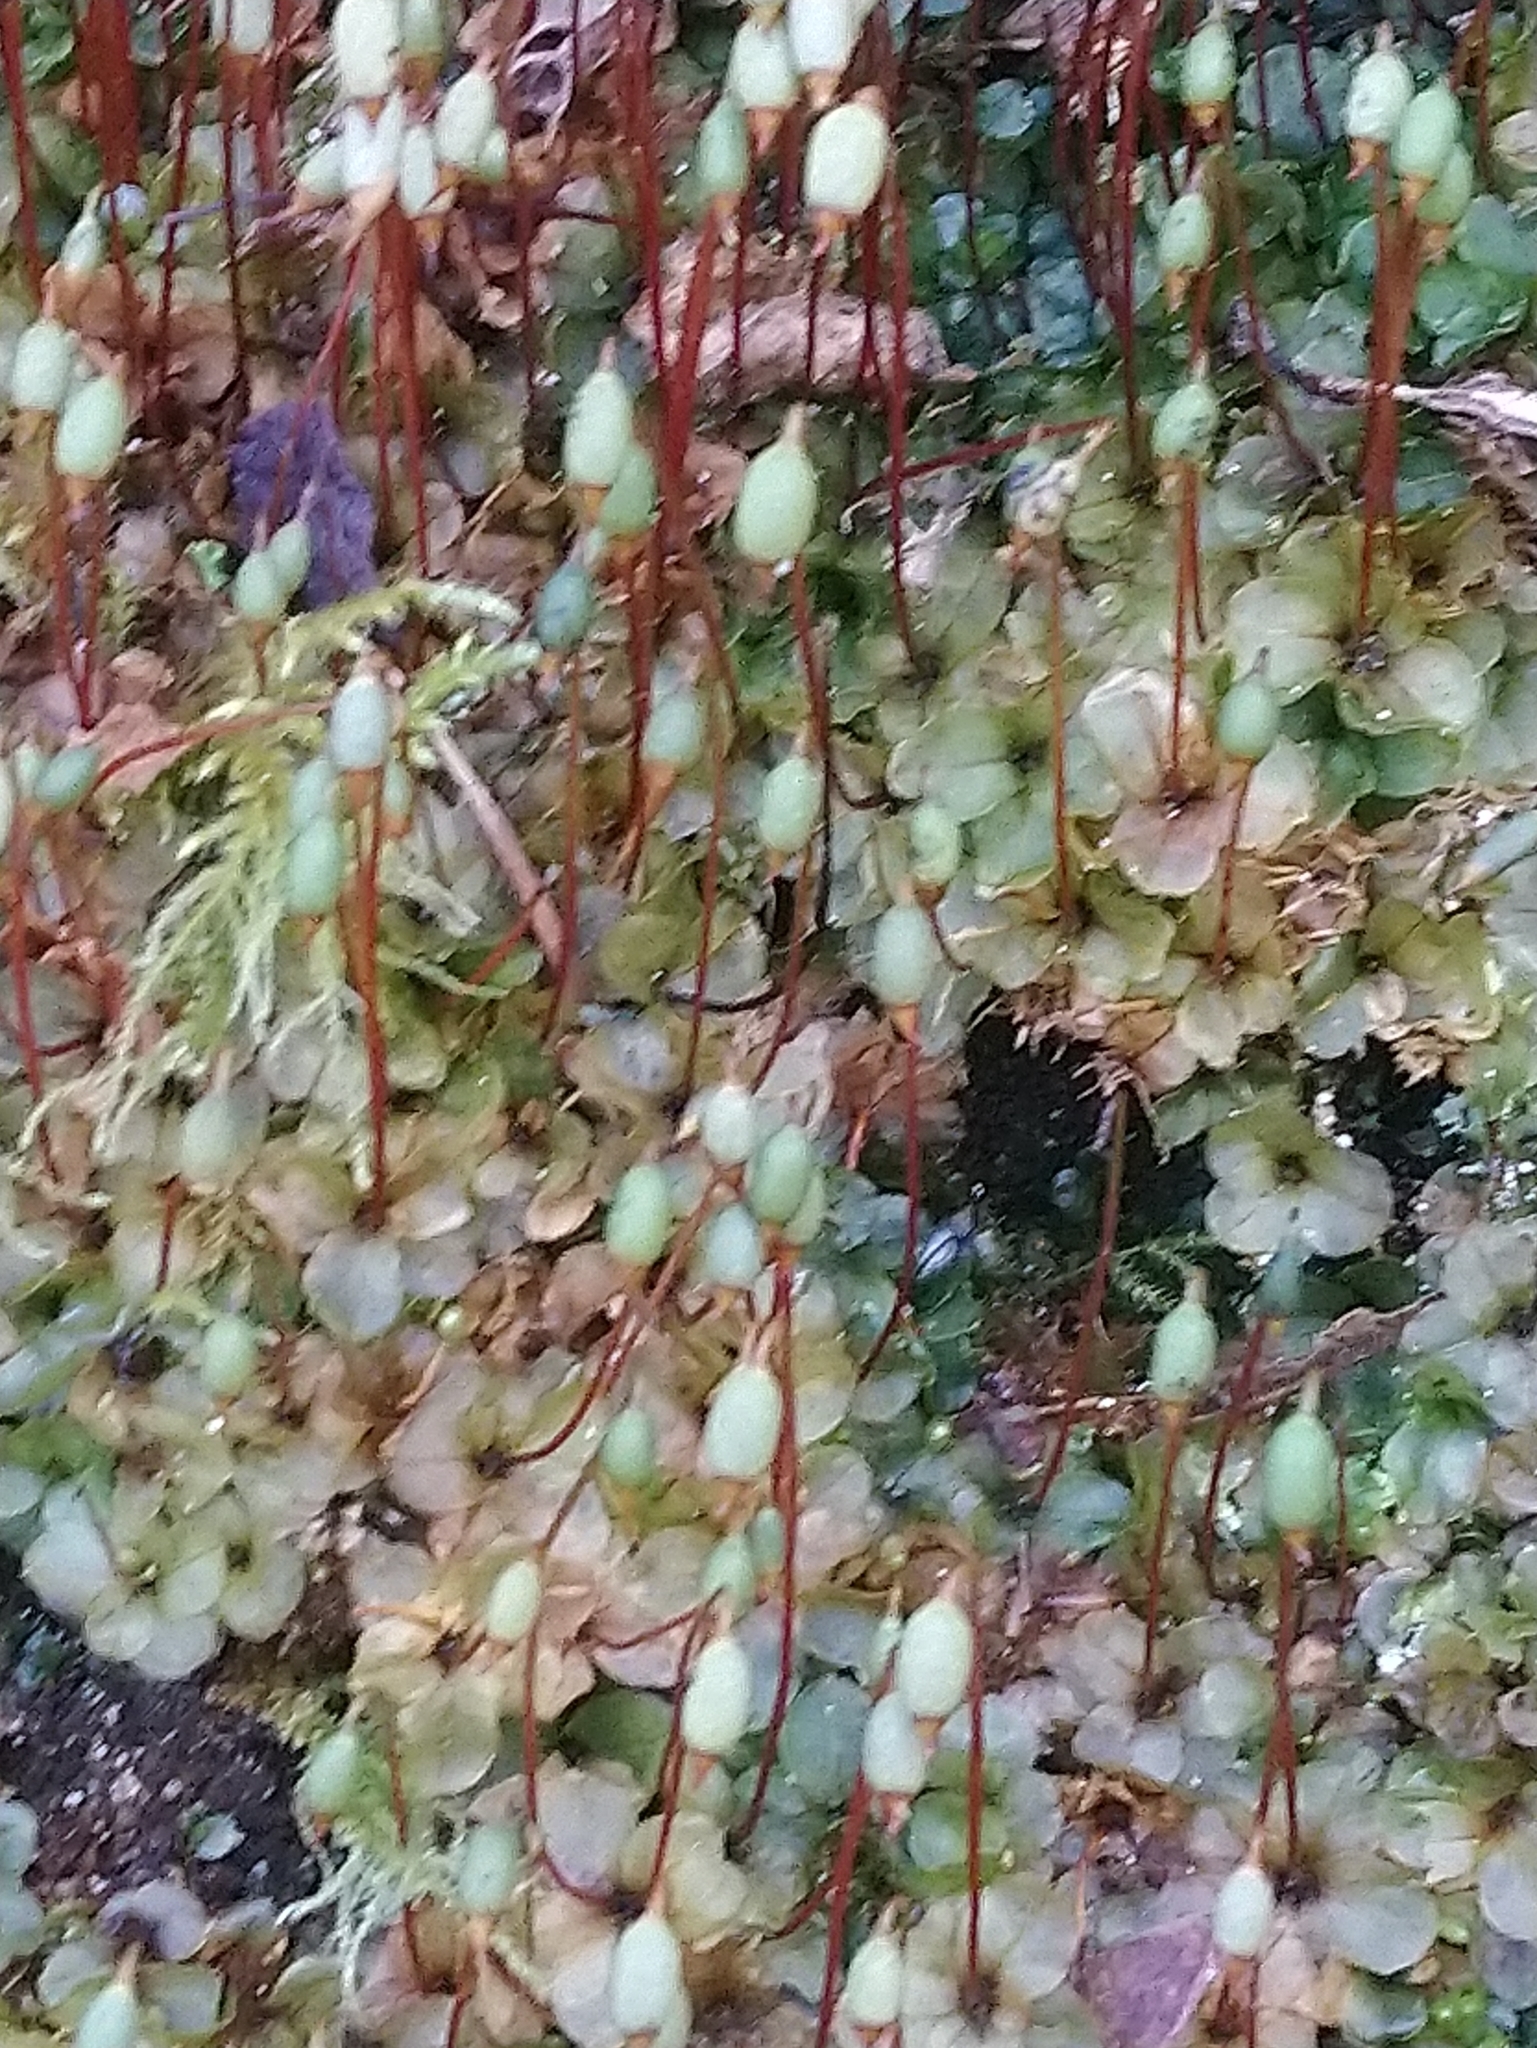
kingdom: Plantae
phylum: Bryophyta
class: Bryopsida
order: Bryales
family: Mniaceae
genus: Rhizomnium
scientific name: Rhizomnium punctatum
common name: Dotted leafy moss
